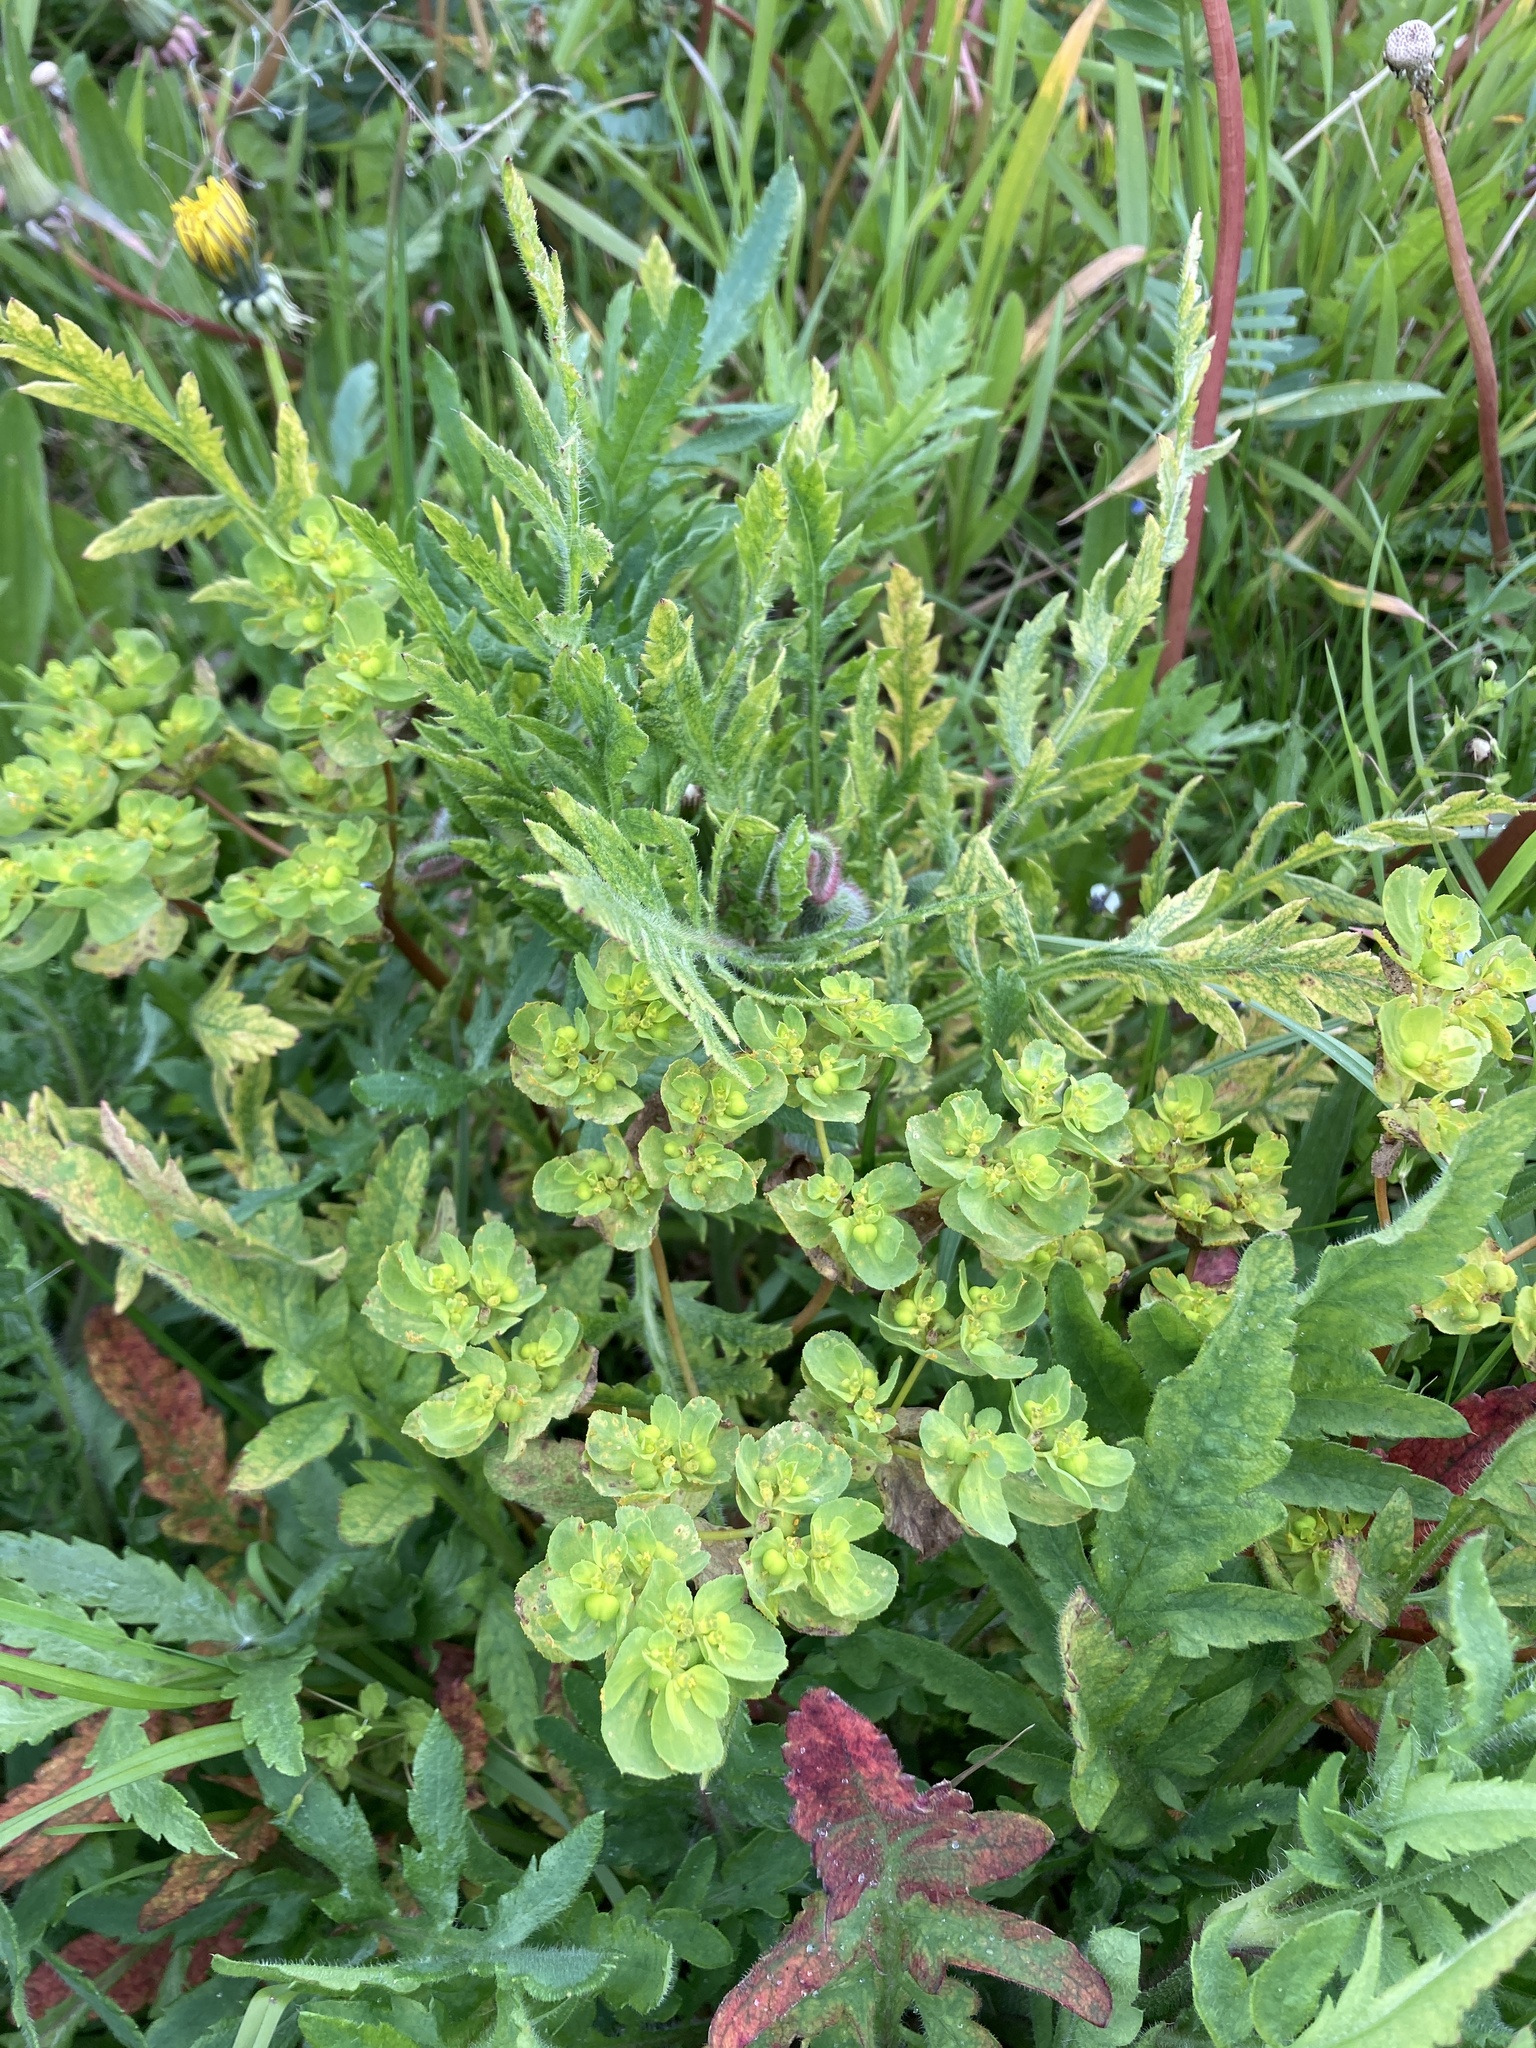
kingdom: Plantae
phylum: Tracheophyta
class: Magnoliopsida
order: Malpighiales
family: Euphorbiaceae
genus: Euphorbia
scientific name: Euphorbia helioscopia
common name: Sun spurge
